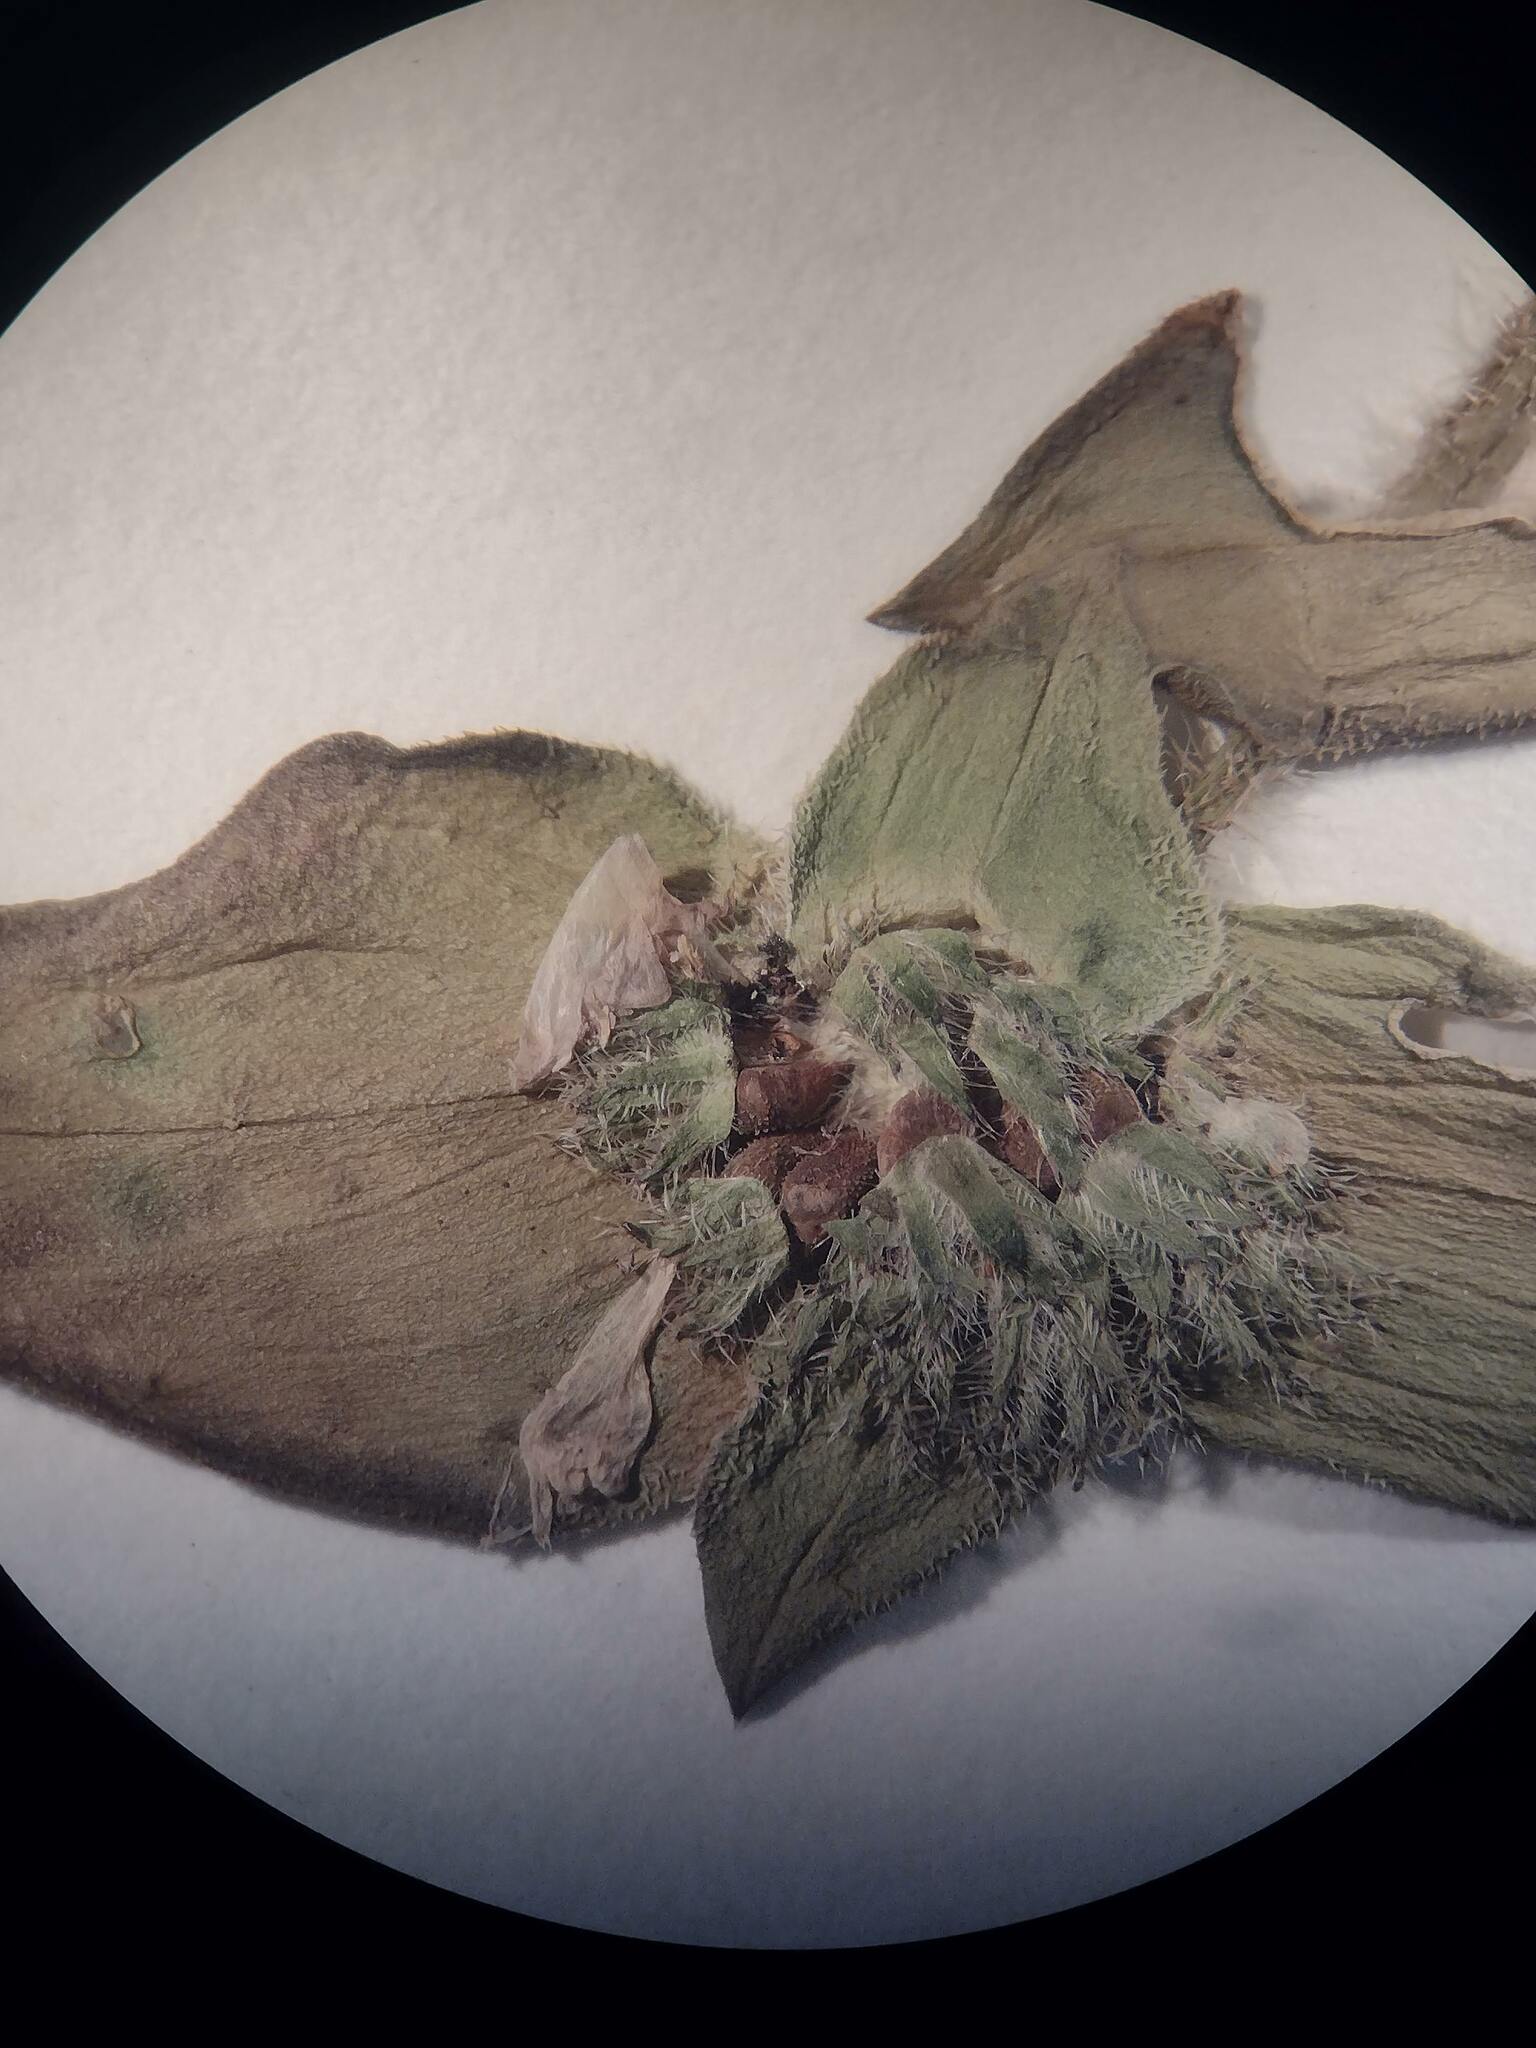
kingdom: Plantae
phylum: Tracheophyta
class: Magnoliopsida
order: Gentianales
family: Rubiaceae
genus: Richardia
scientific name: Richardia scabra
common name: Rough mexican clover
